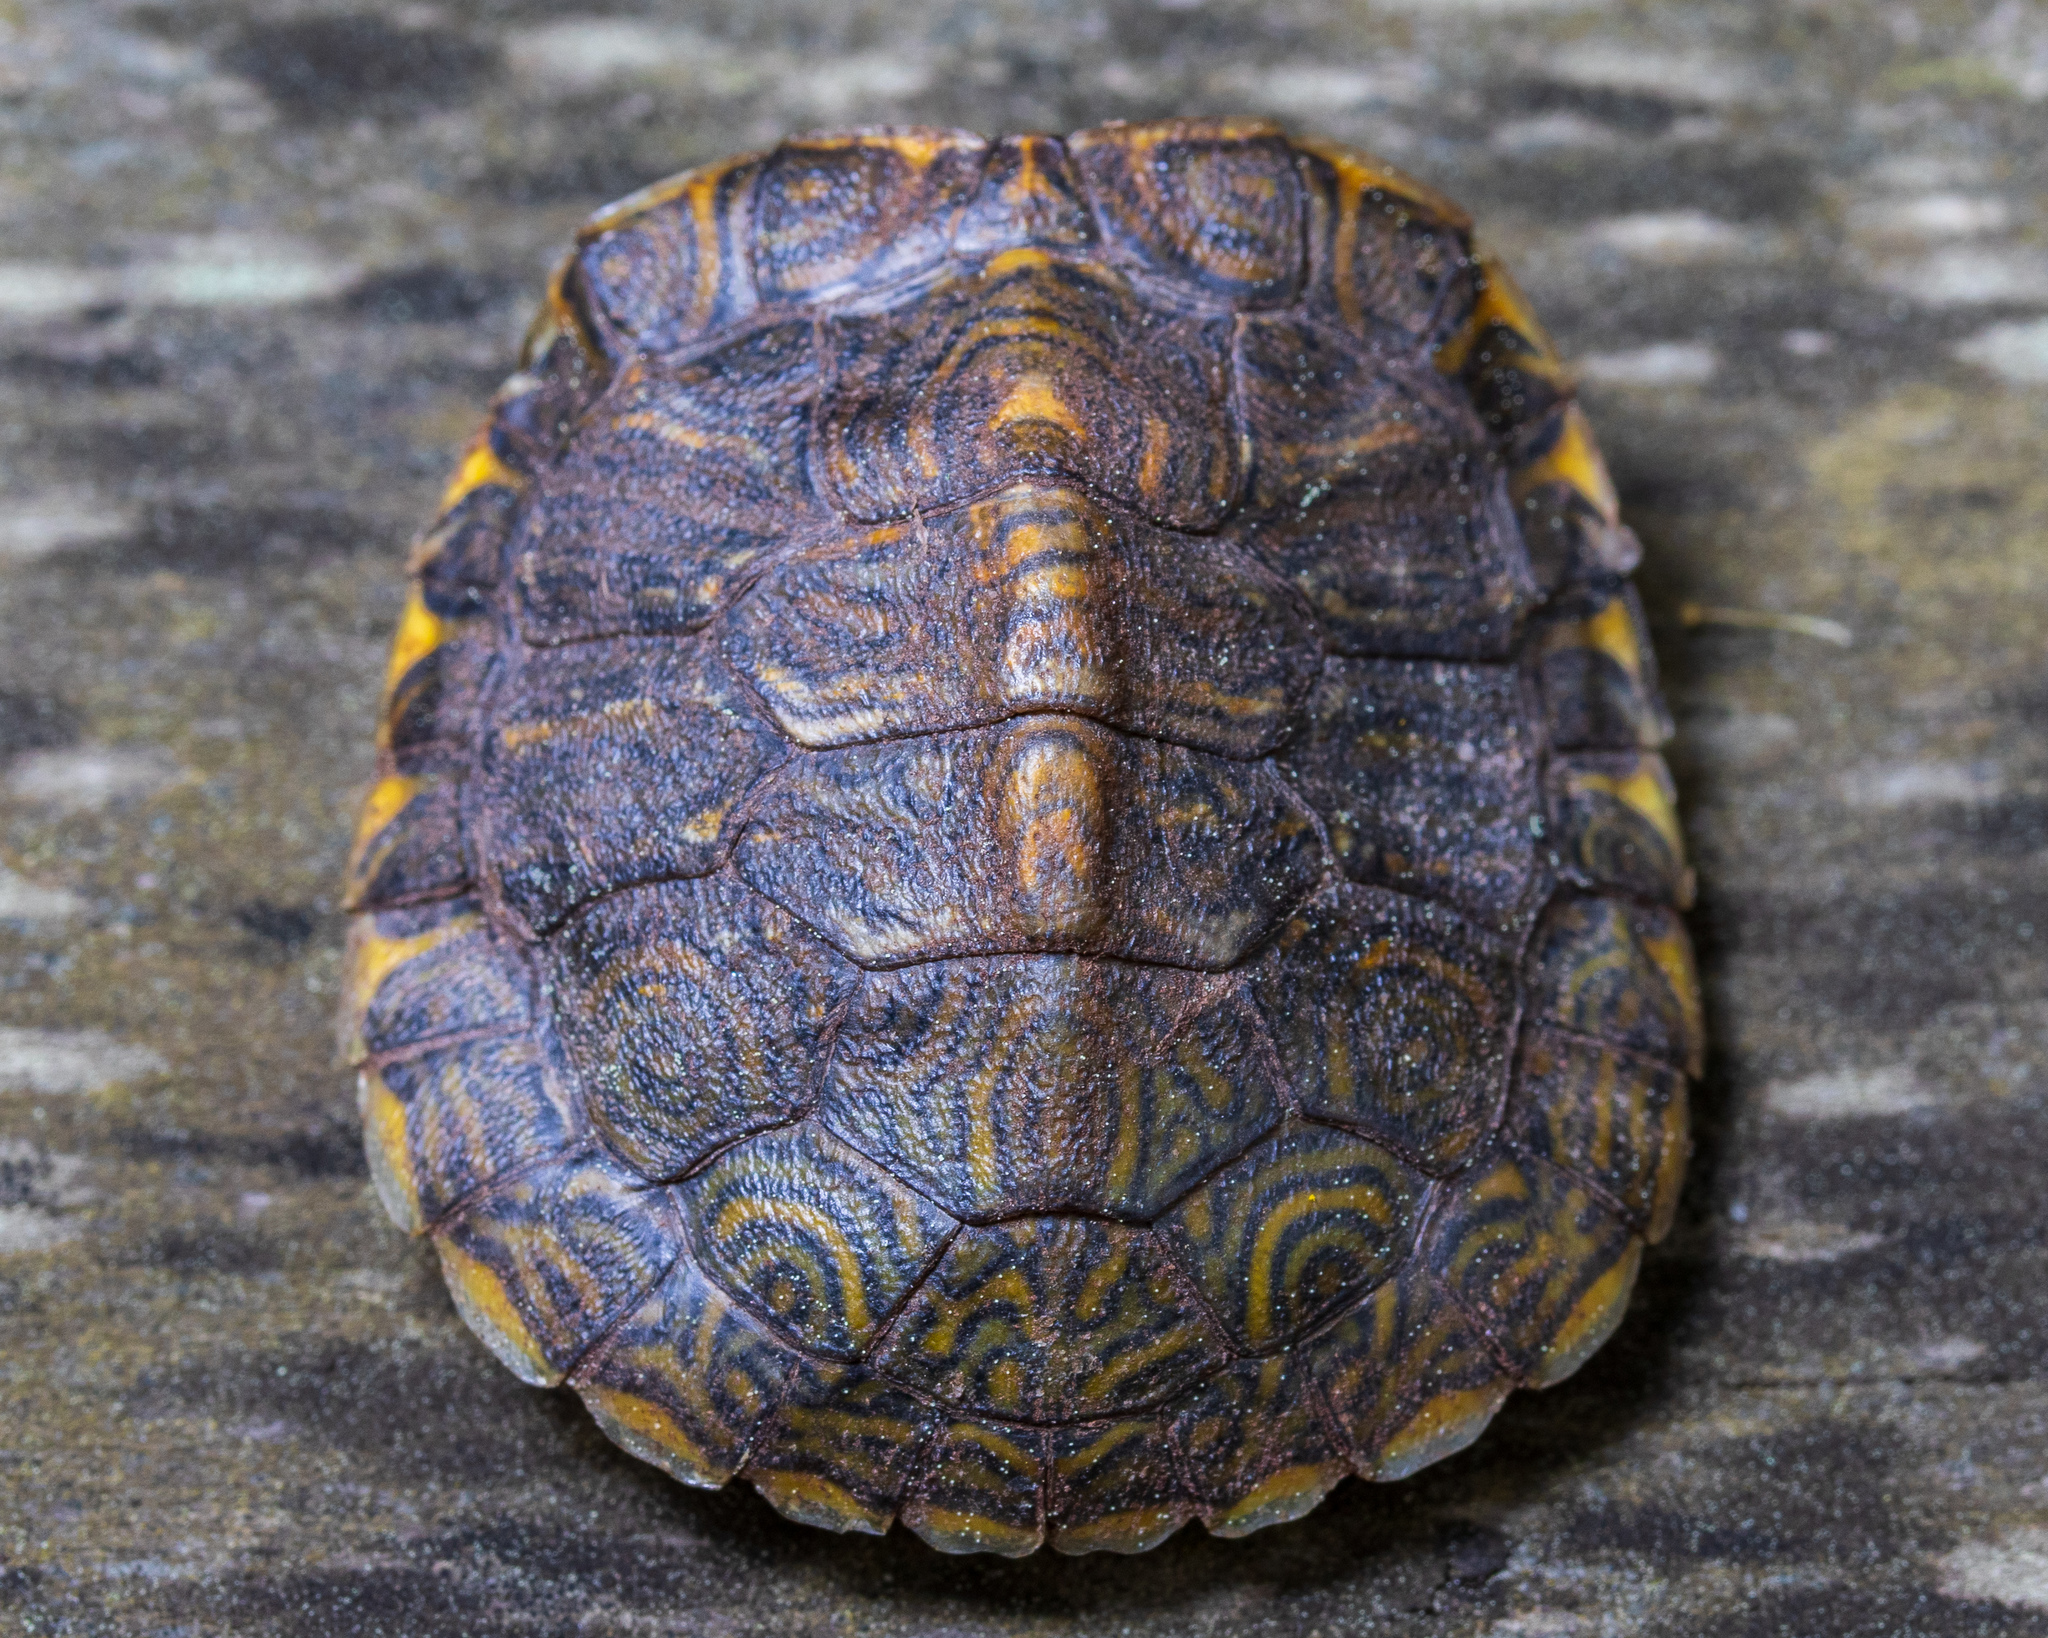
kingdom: Animalia
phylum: Chordata
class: Testudines
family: Emydidae
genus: Trachemys
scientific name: Trachemys scripta
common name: Slider
